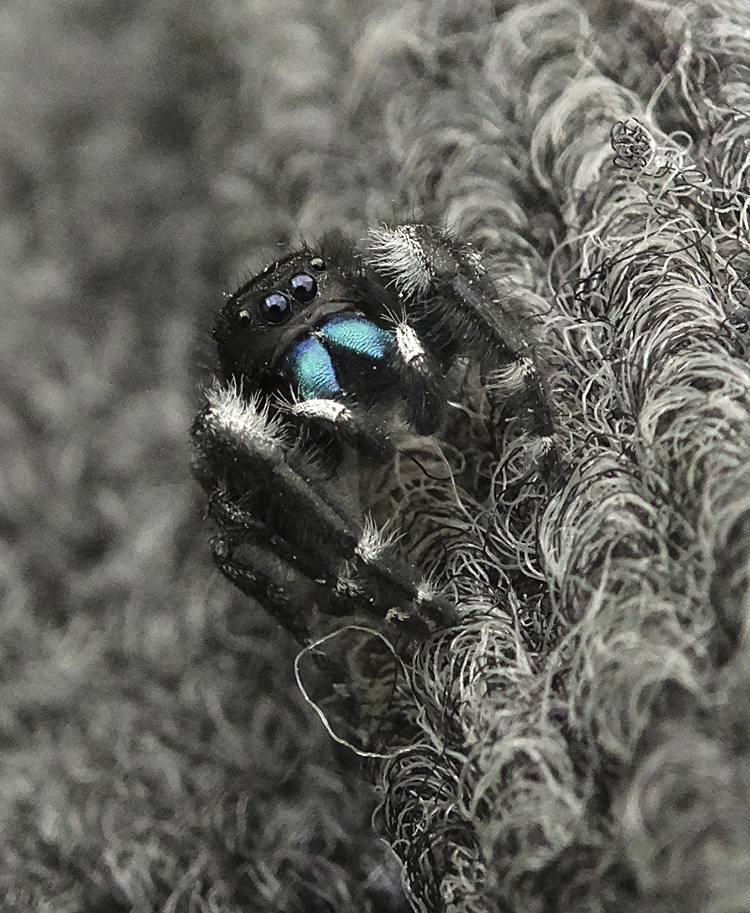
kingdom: Animalia
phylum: Arthropoda
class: Arachnida
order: Araneae
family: Salticidae
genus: Phidippus
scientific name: Phidippus audax
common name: Bold jumper
